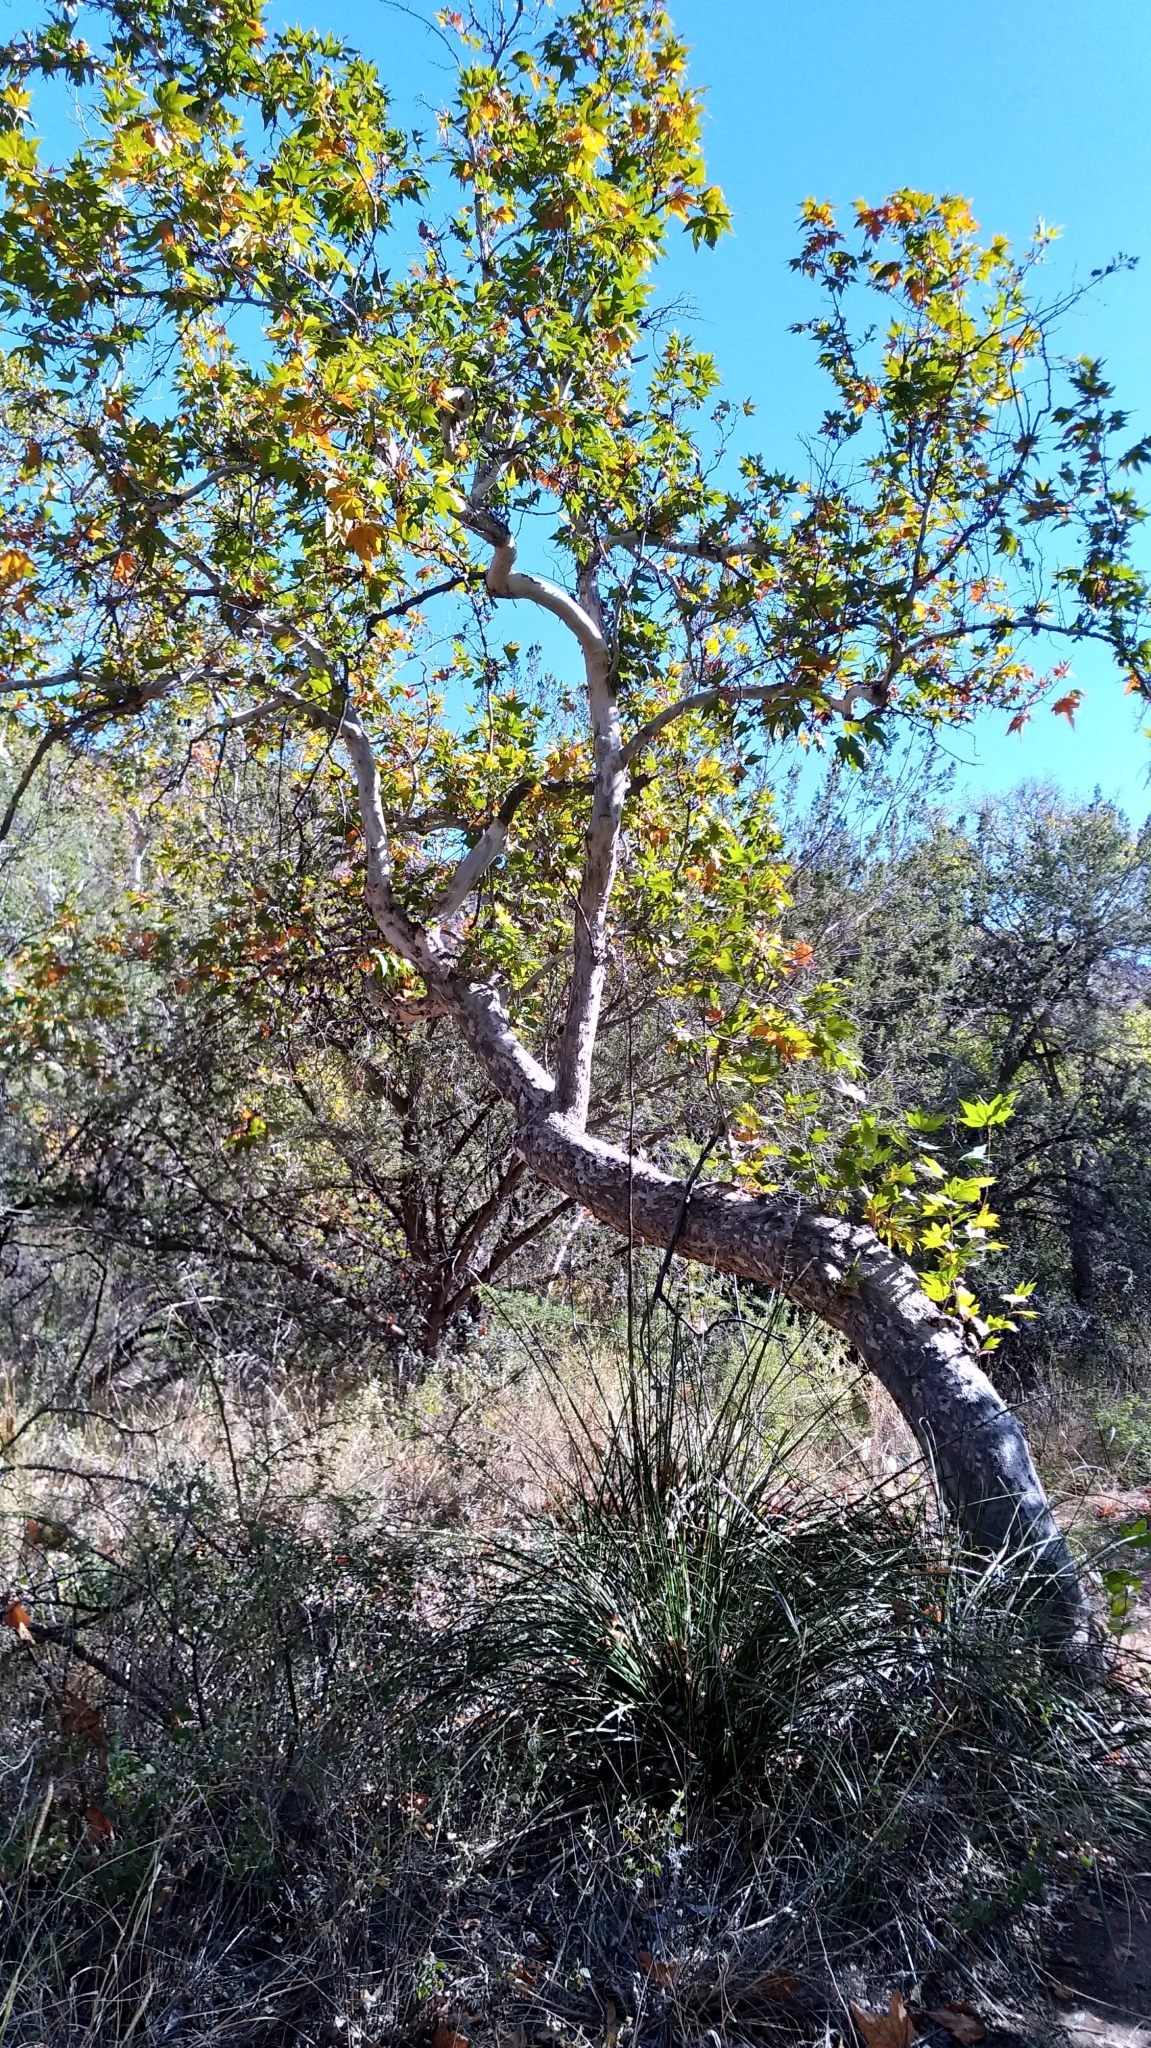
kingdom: Plantae
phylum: Tracheophyta
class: Magnoliopsida
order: Proteales
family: Platanaceae
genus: Platanus
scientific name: Platanus wrightii
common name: Arizona sycamore
